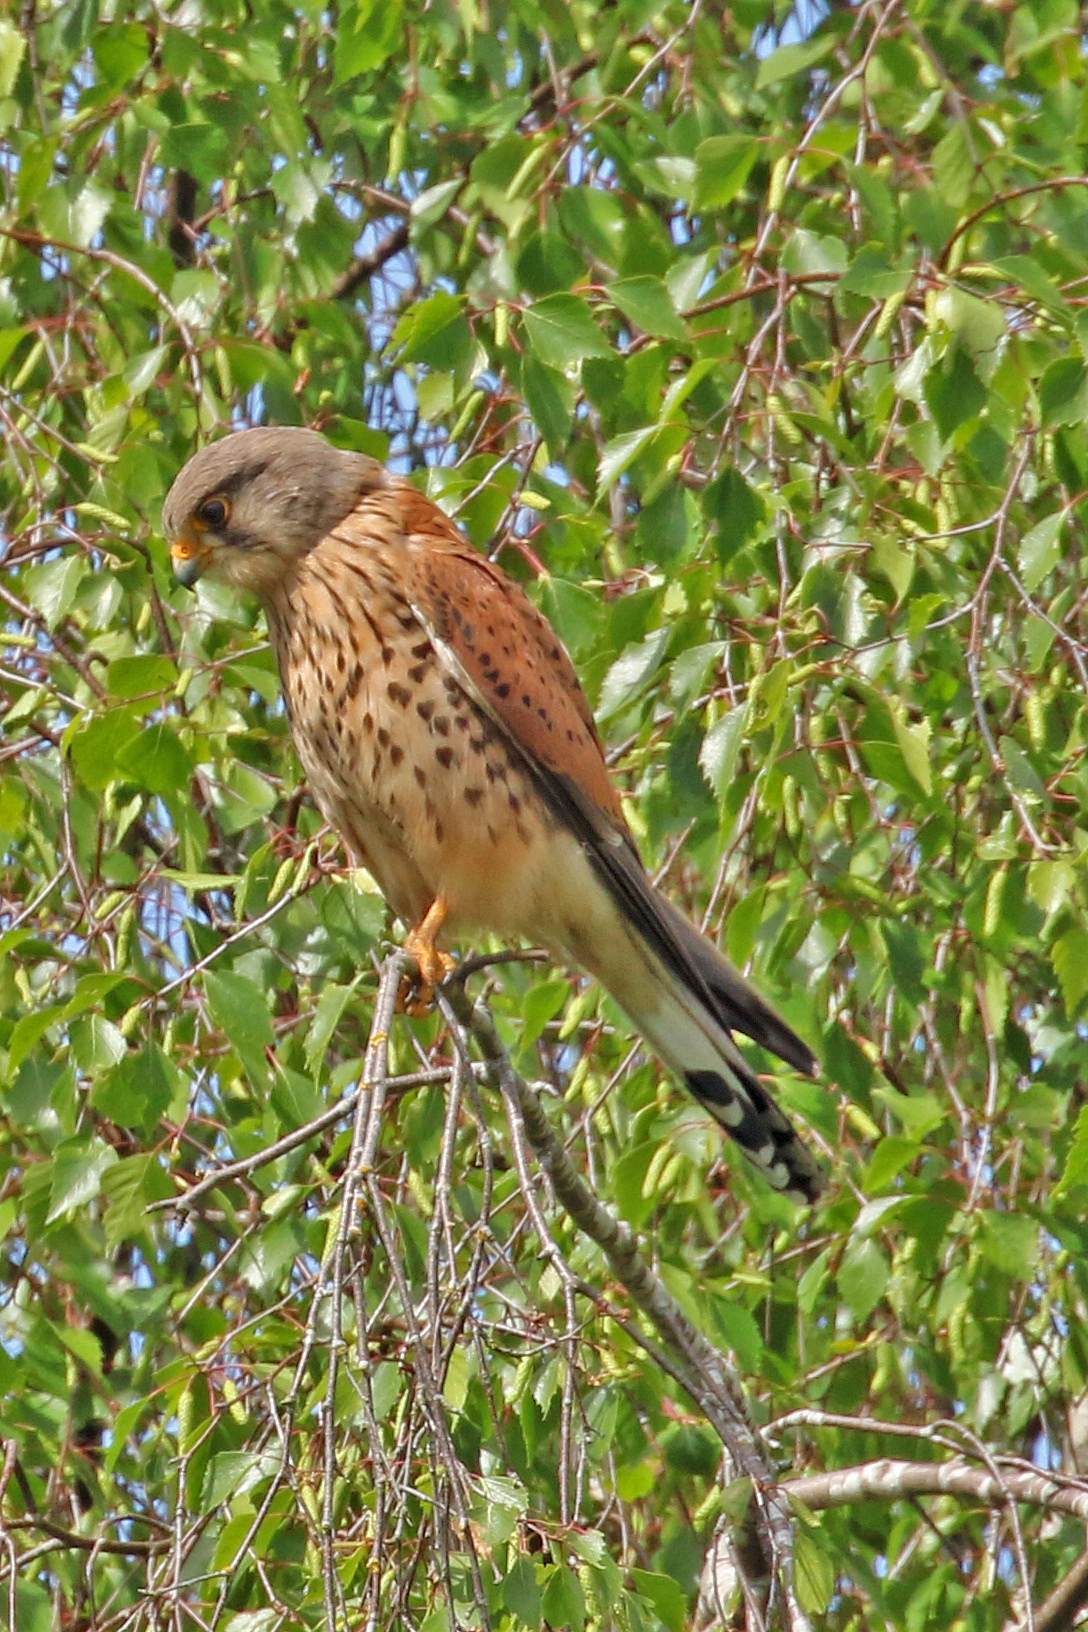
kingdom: Animalia
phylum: Chordata
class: Aves
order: Falconiformes
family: Falconidae
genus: Falco
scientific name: Falco tinnunculus
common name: Common kestrel
